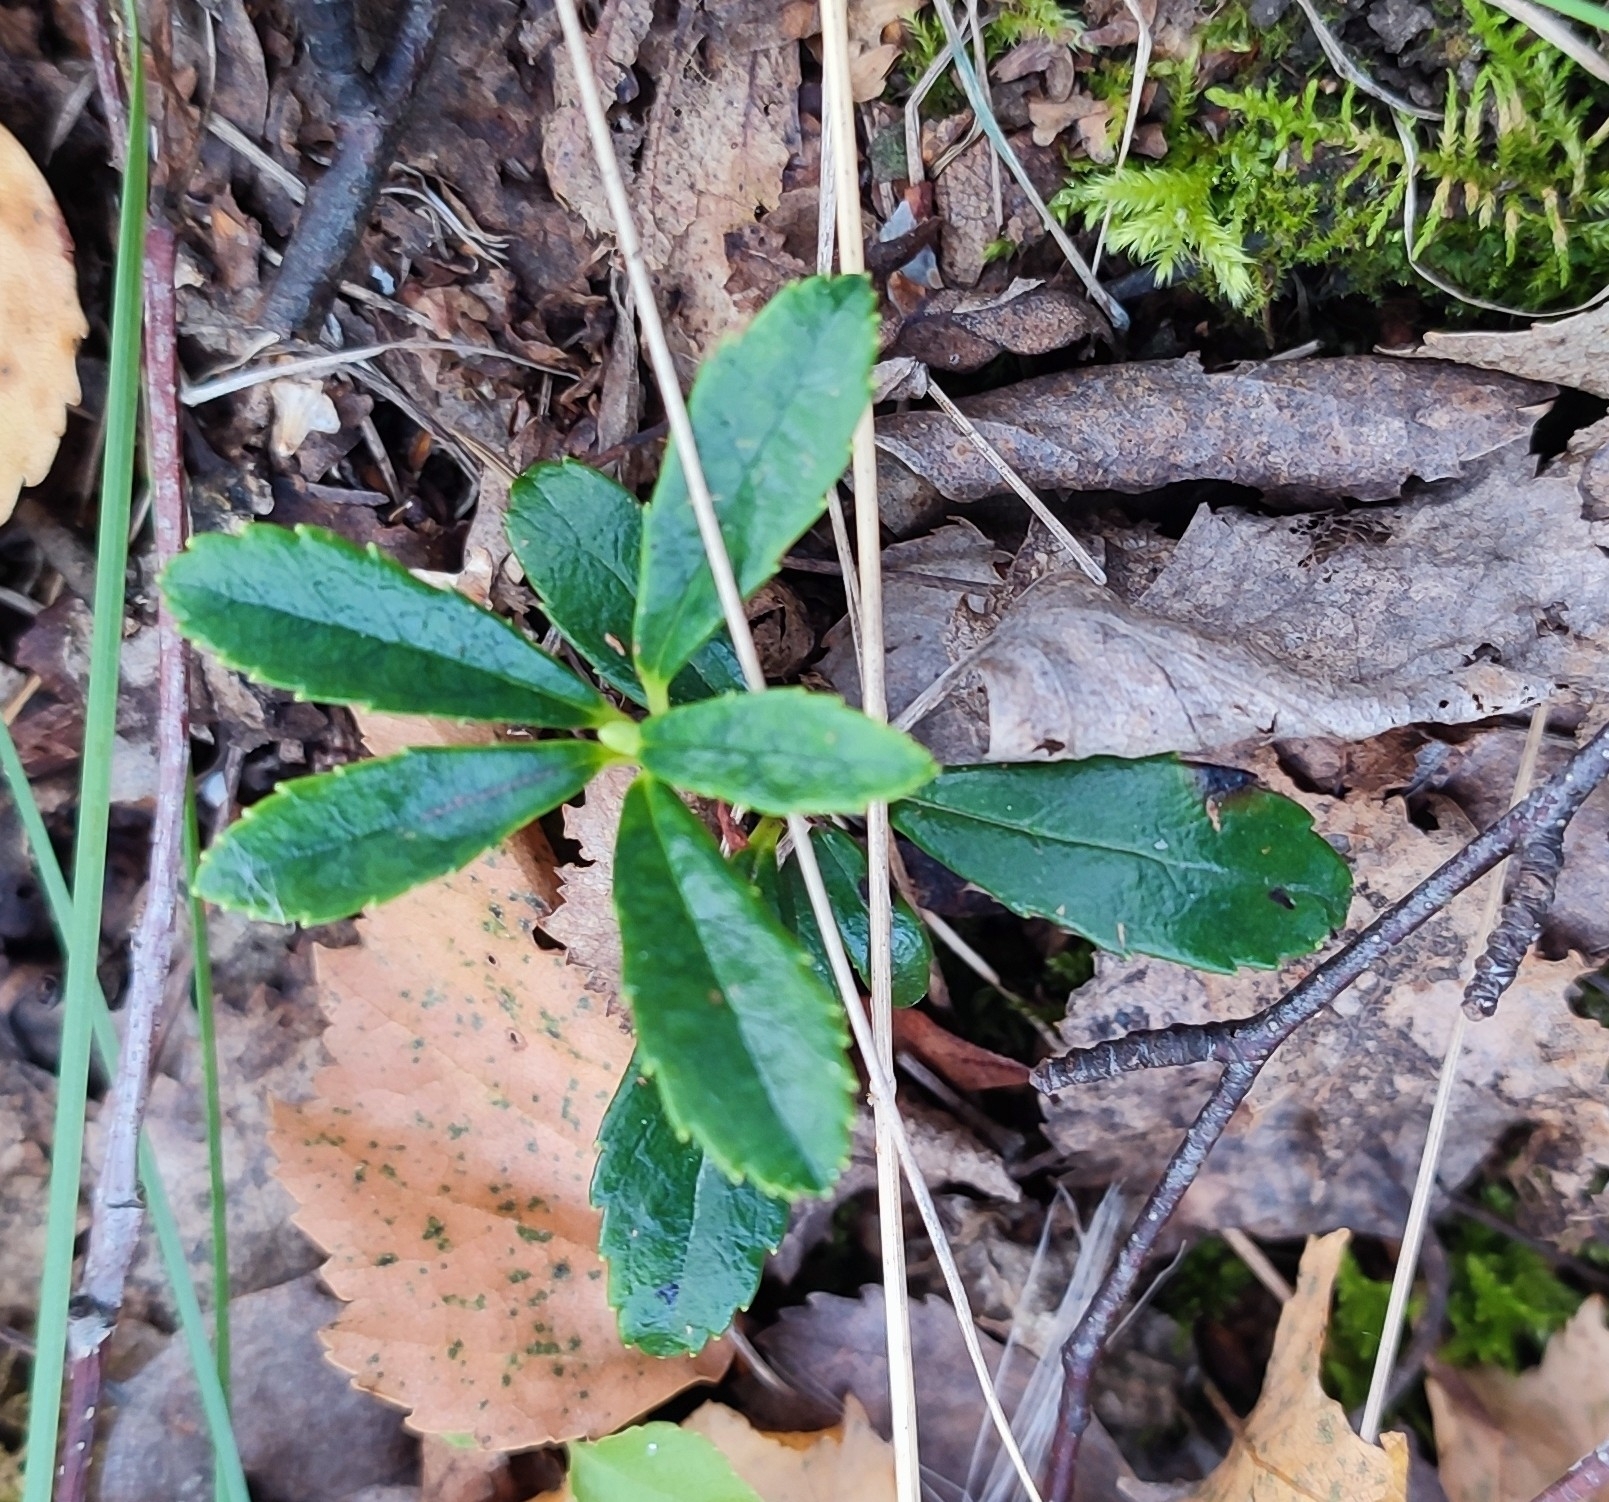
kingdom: Plantae
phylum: Tracheophyta
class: Magnoliopsida
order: Ericales
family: Ericaceae
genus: Chimaphila
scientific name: Chimaphila umbellata
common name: Pipsissewa
